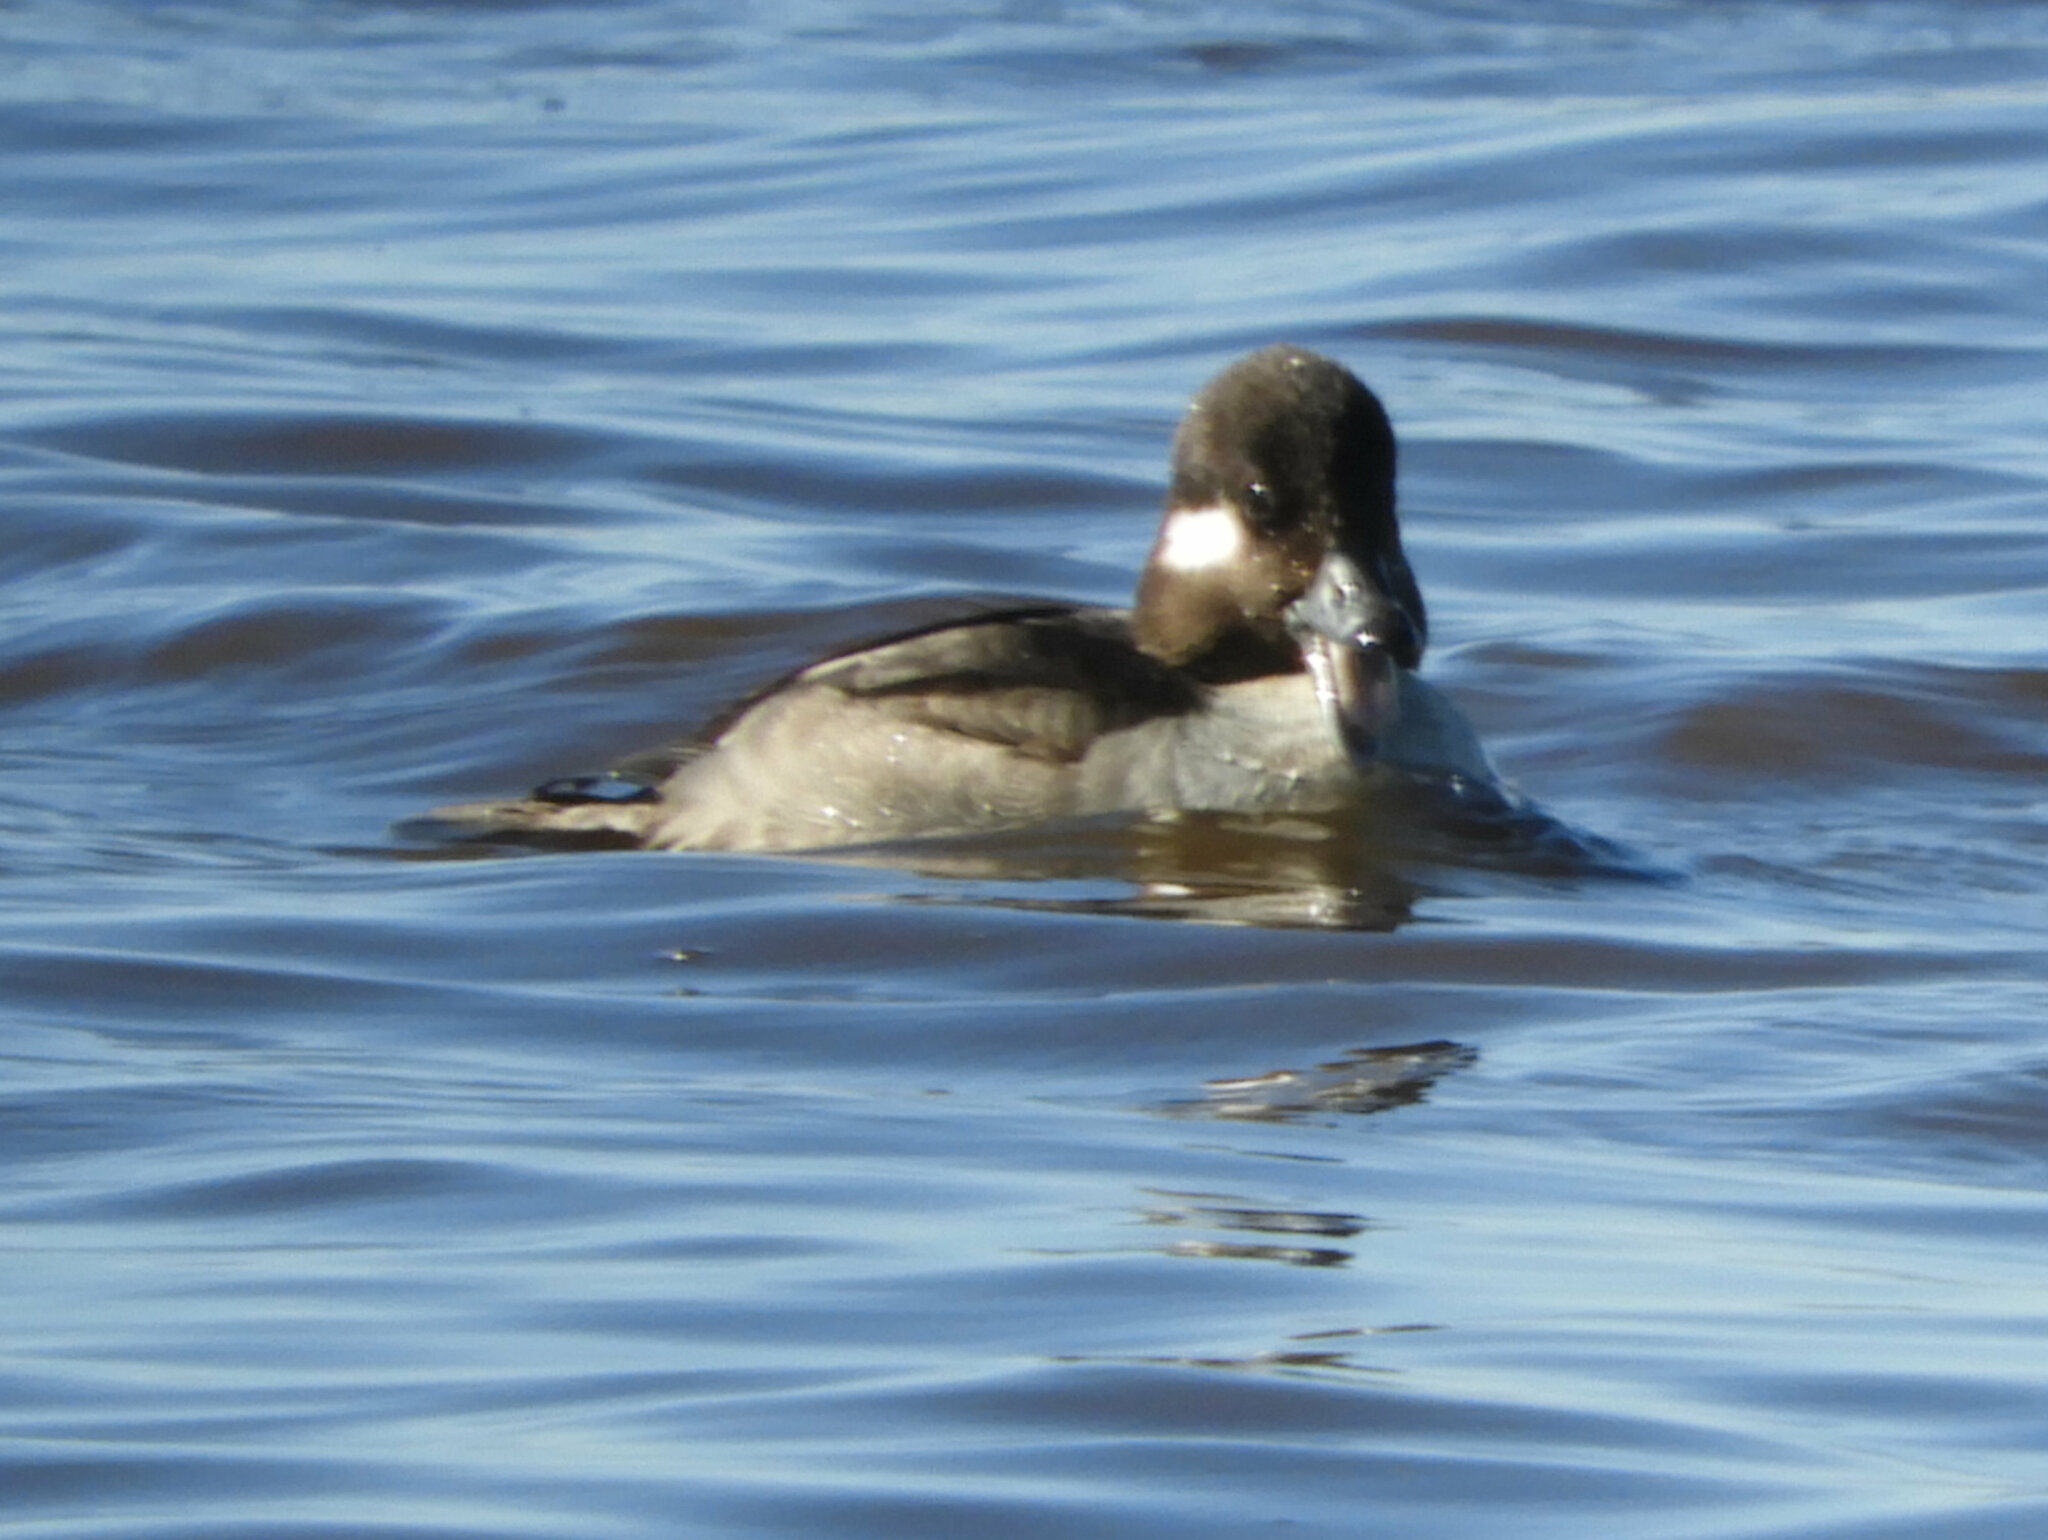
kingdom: Animalia
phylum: Chordata
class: Aves
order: Anseriformes
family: Anatidae
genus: Bucephala
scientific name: Bucephala albeola
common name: Bufflehead
